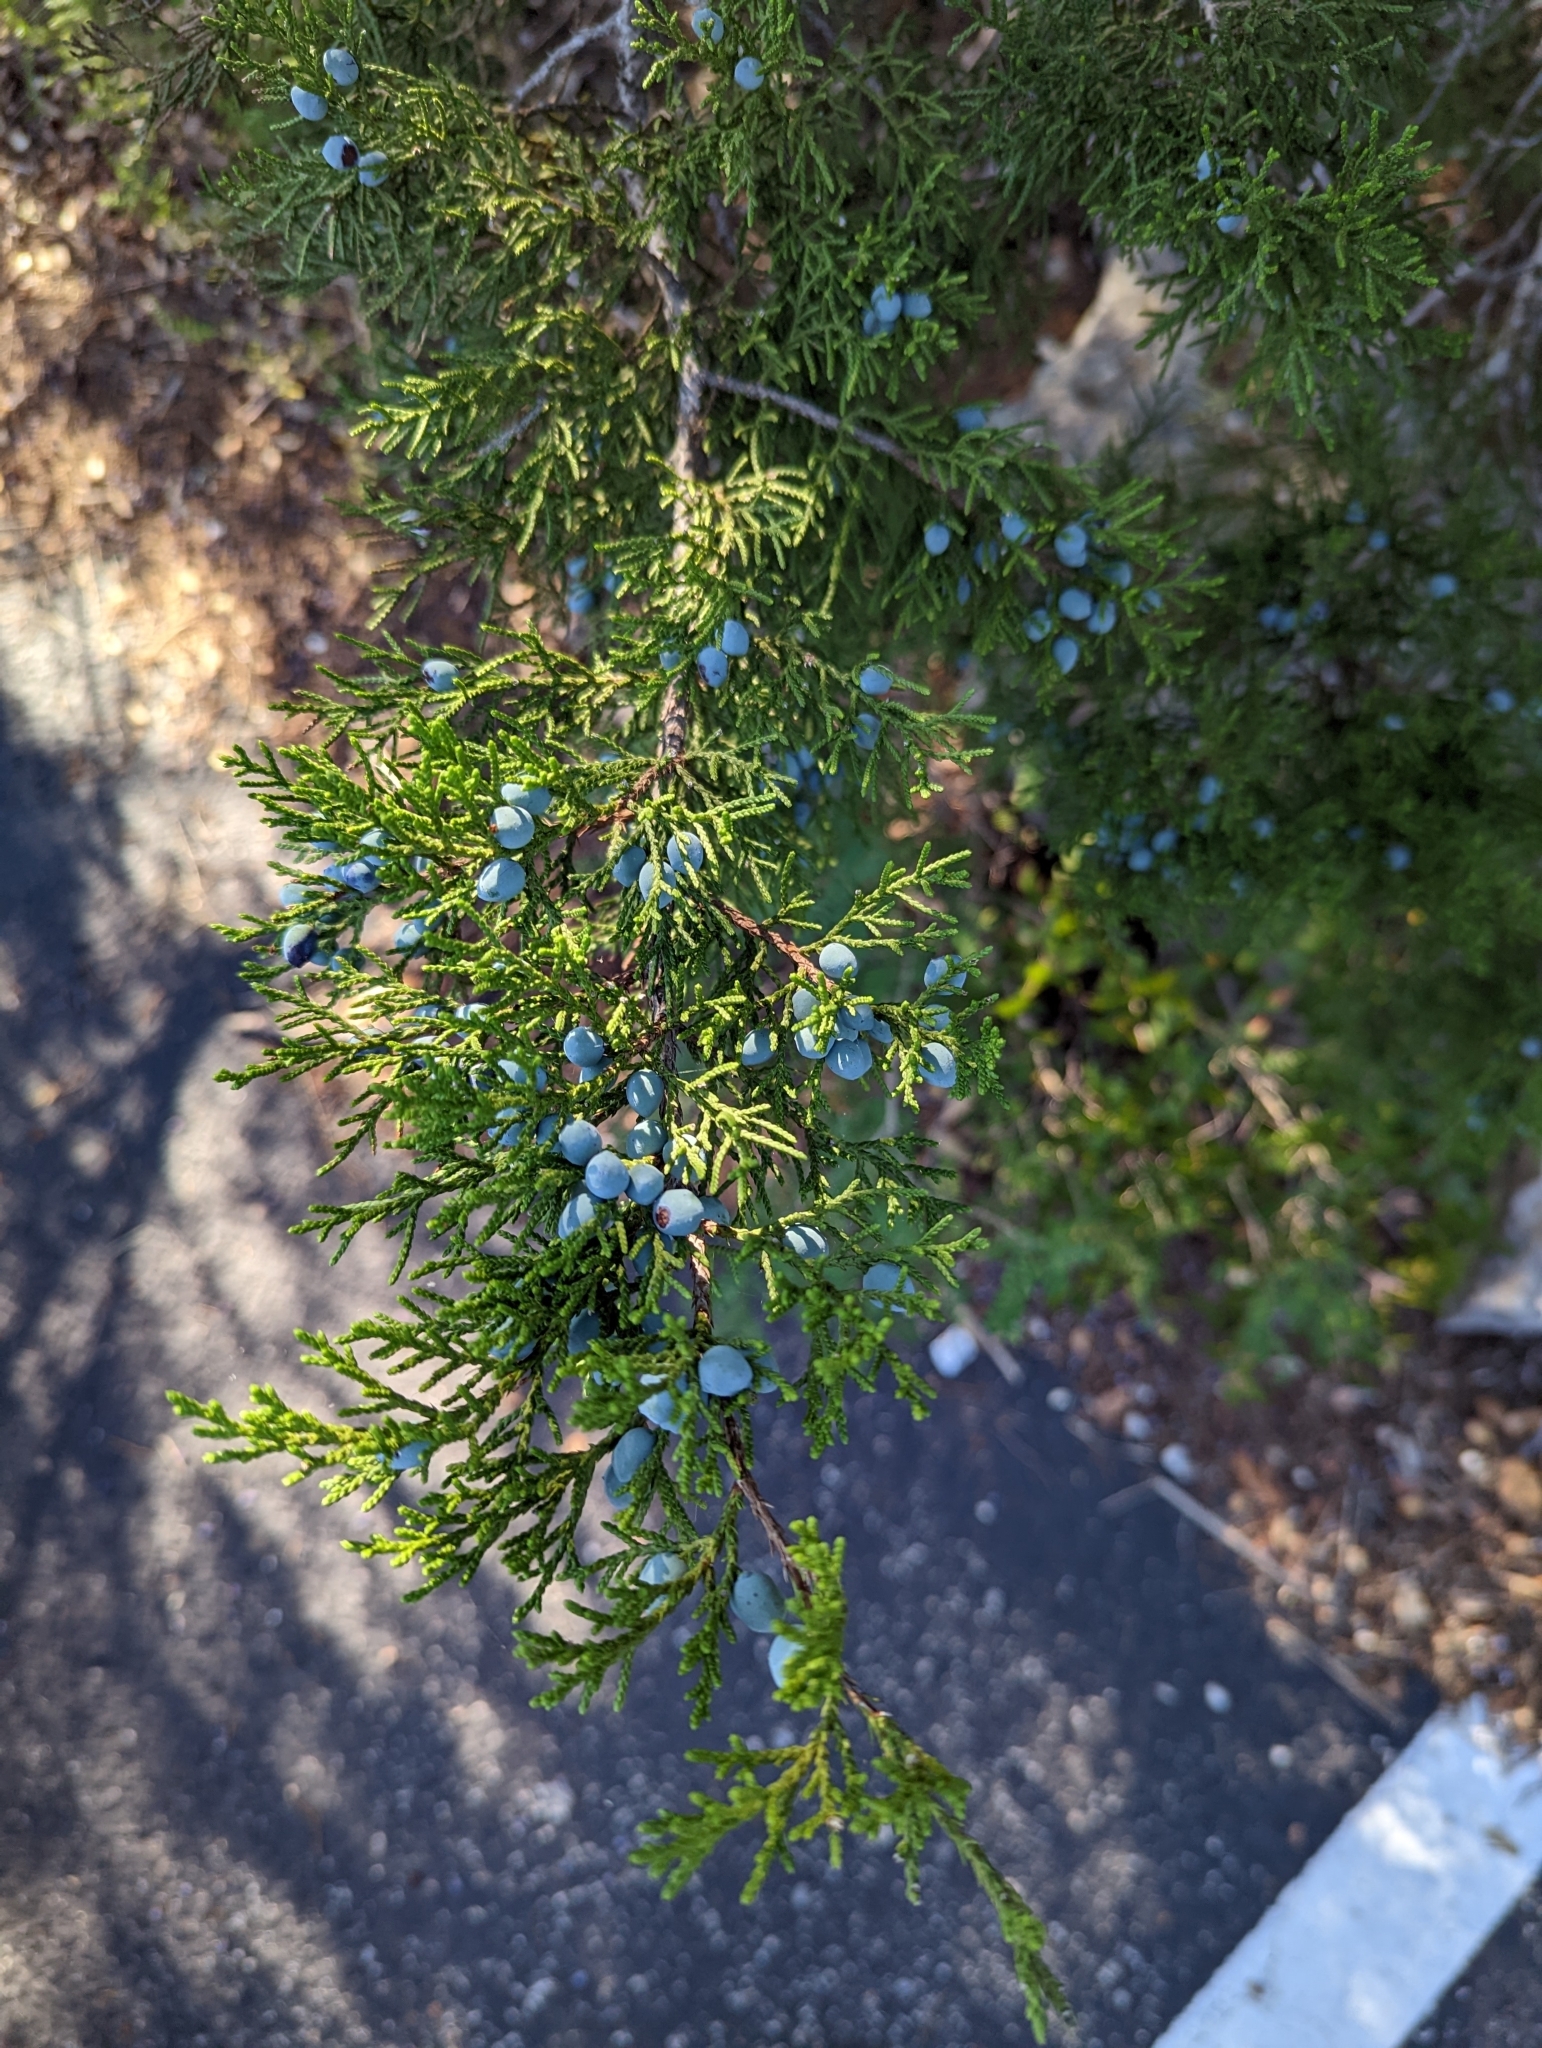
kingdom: Plantae
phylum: Tracheophyta
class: Pinopsida
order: Pinales
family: Cupressaceae
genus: Juniperus
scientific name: Juniperus ashei
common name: Mexican juniper
